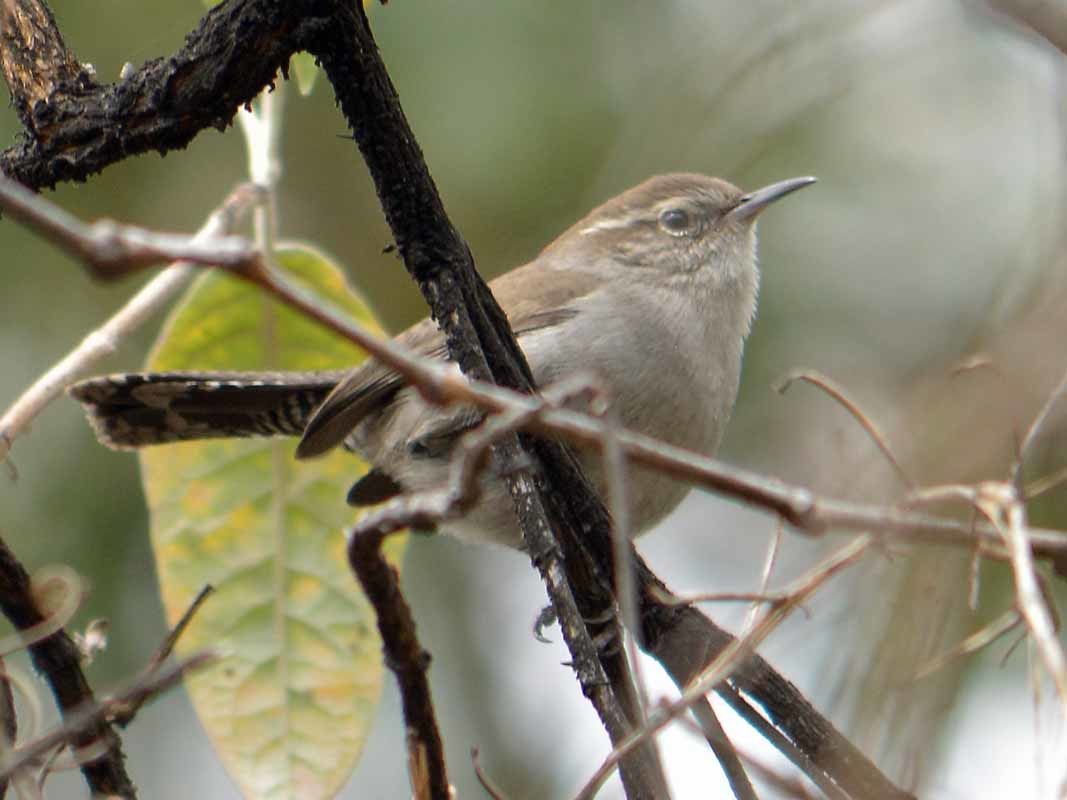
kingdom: Animalia
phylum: Chordata
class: Aves
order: Passeriformes
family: Troglodytidae
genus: Thryomanes
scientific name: Thryomanes bewickii
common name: Bewick's wren
